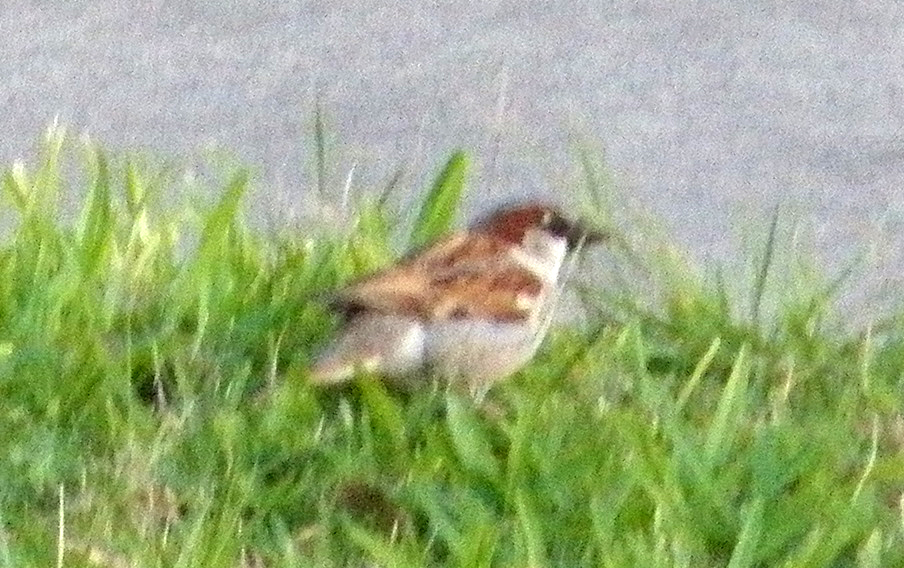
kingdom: Animalia
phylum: Chordata
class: Aves
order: Passeriformes
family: Passeridae
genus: Passer
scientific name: Passer domesticus
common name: House sparrow
